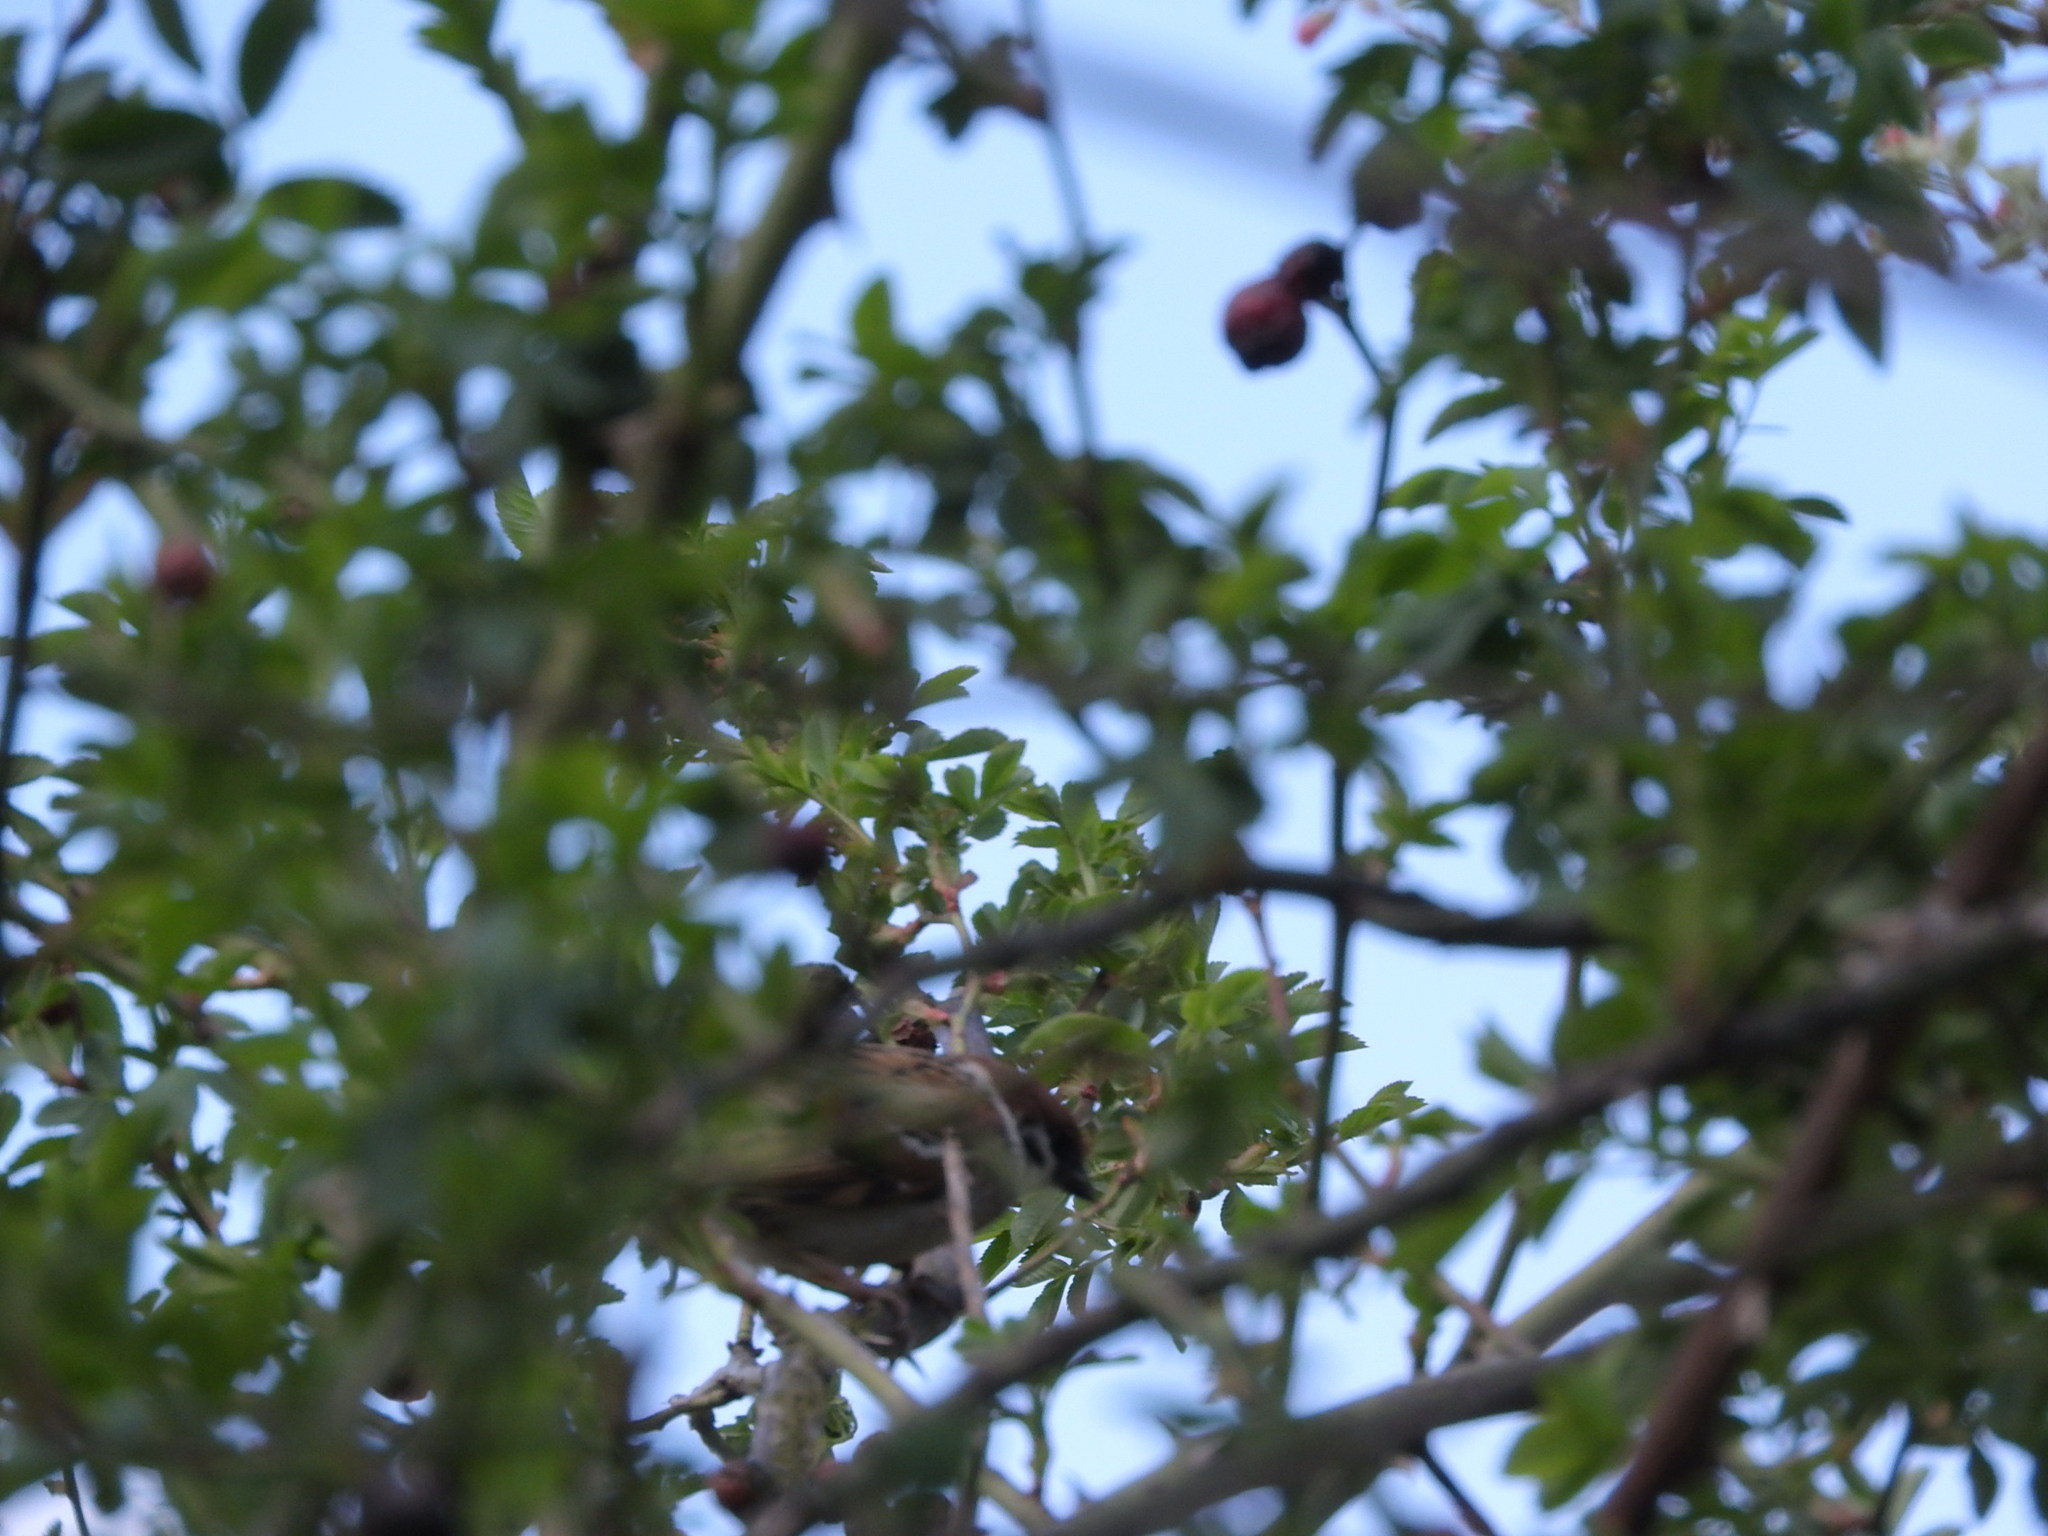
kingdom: Animalia
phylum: Chordata
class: Aves
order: Passeriformes
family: Passeridae
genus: Passer
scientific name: Passer montanus
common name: Eurasian tree sparrow
